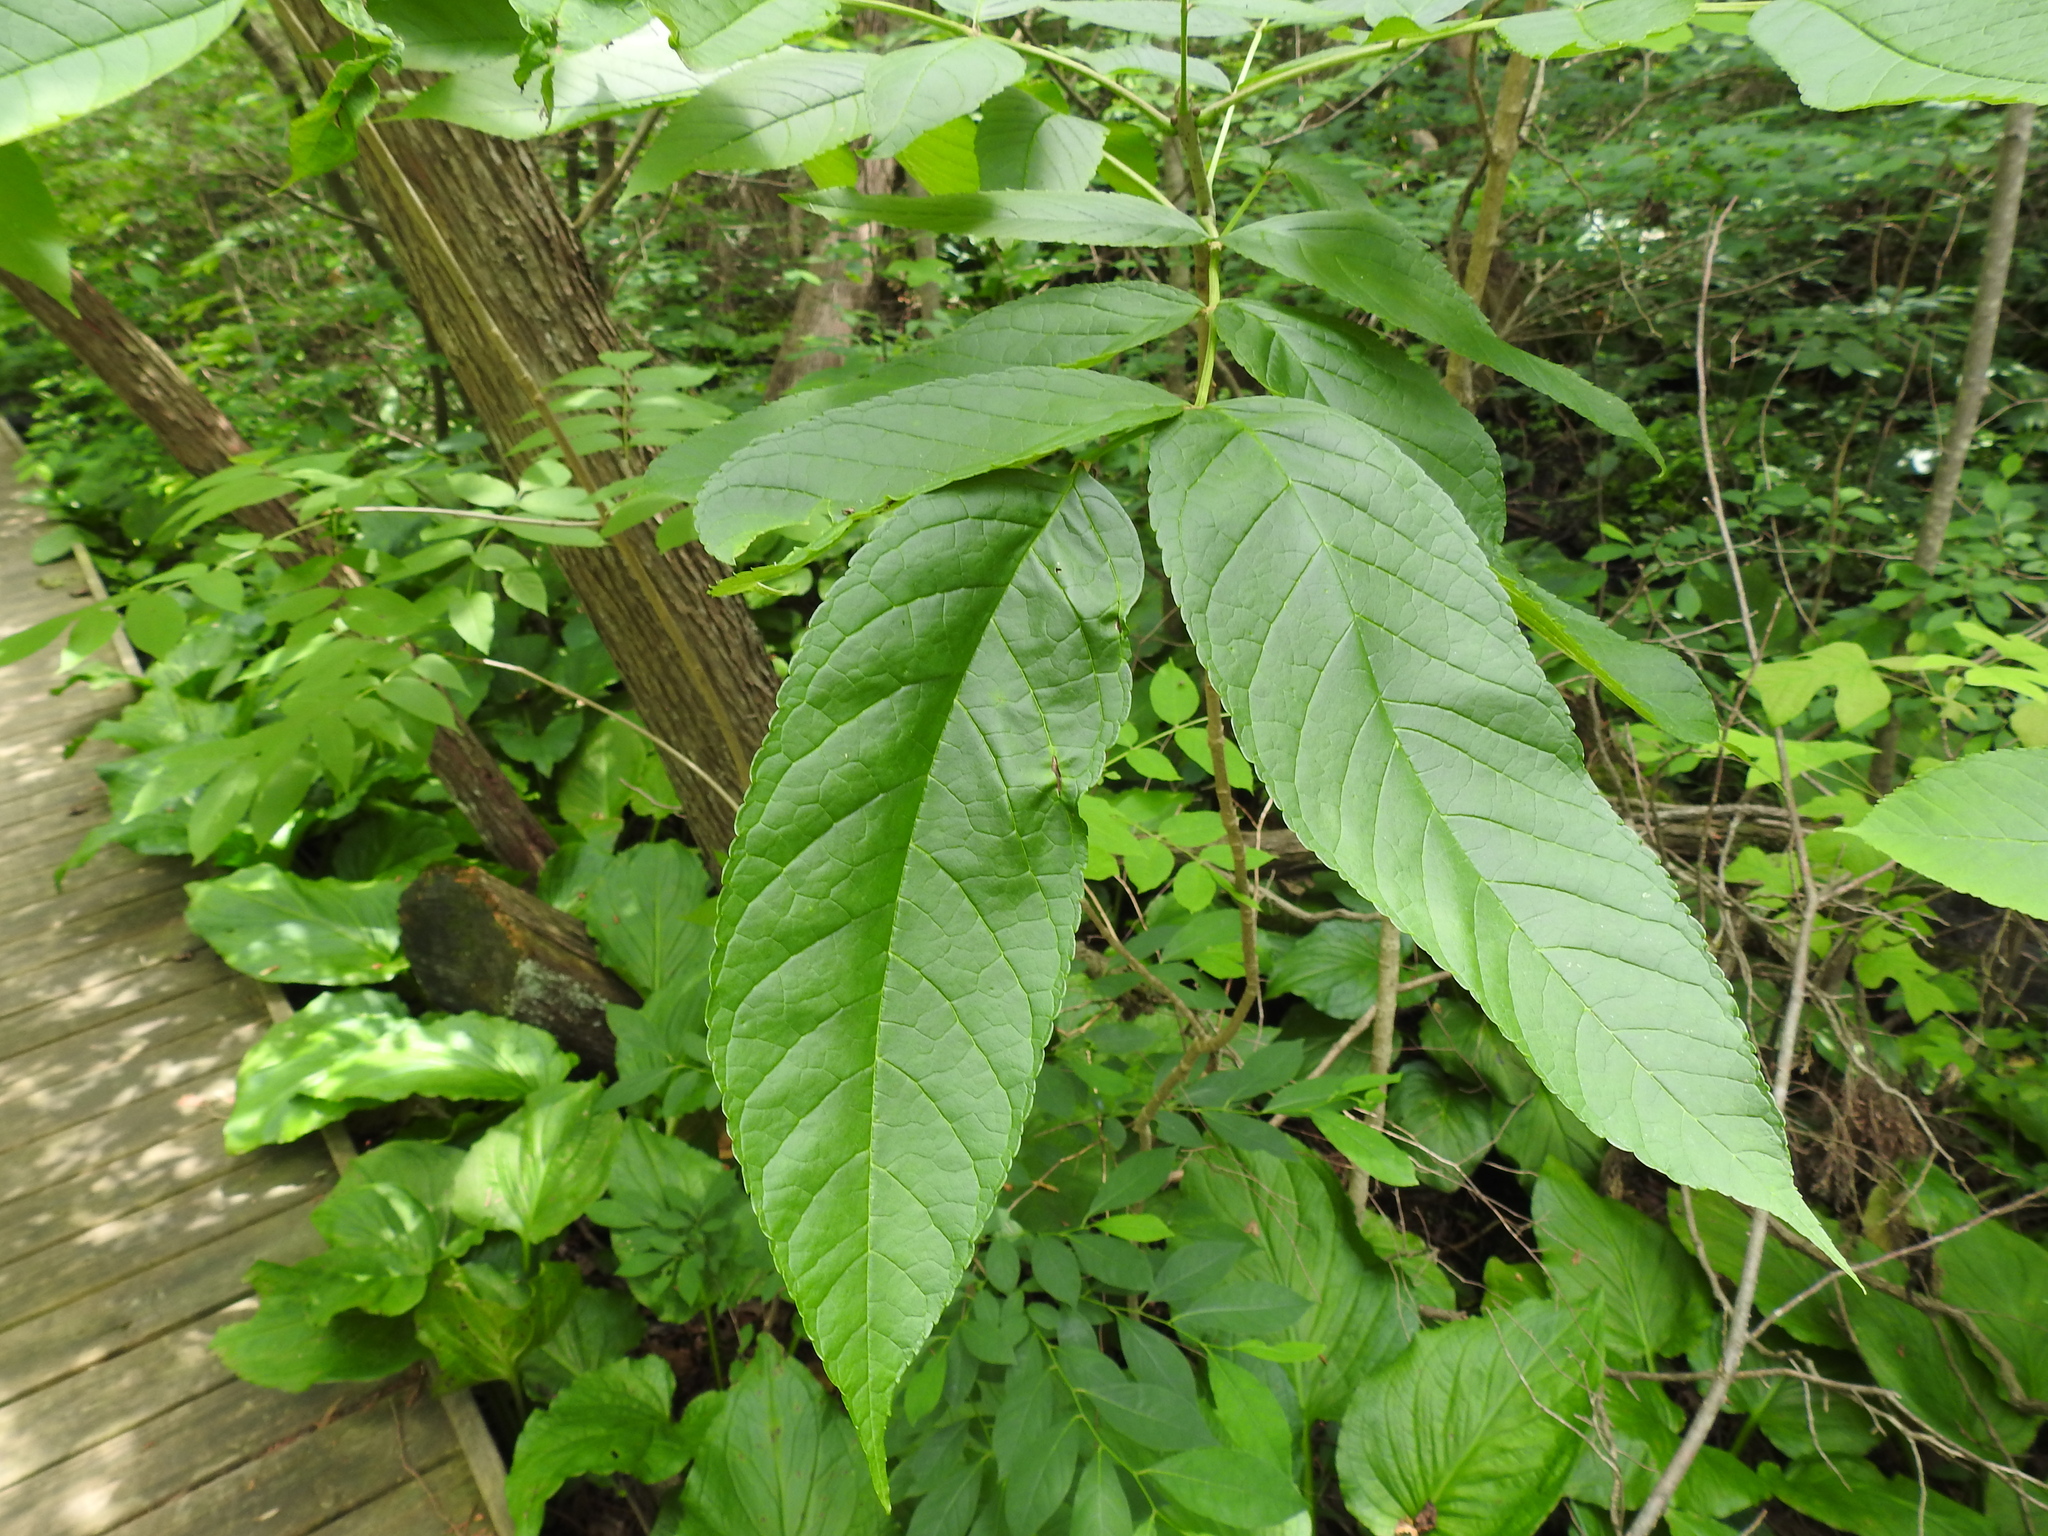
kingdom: Plantae
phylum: Tracheophyta
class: Magnoliopsida
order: Lamiales
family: Oleaceae
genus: Fraxinus
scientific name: Fraxinus nigra
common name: Black ash
